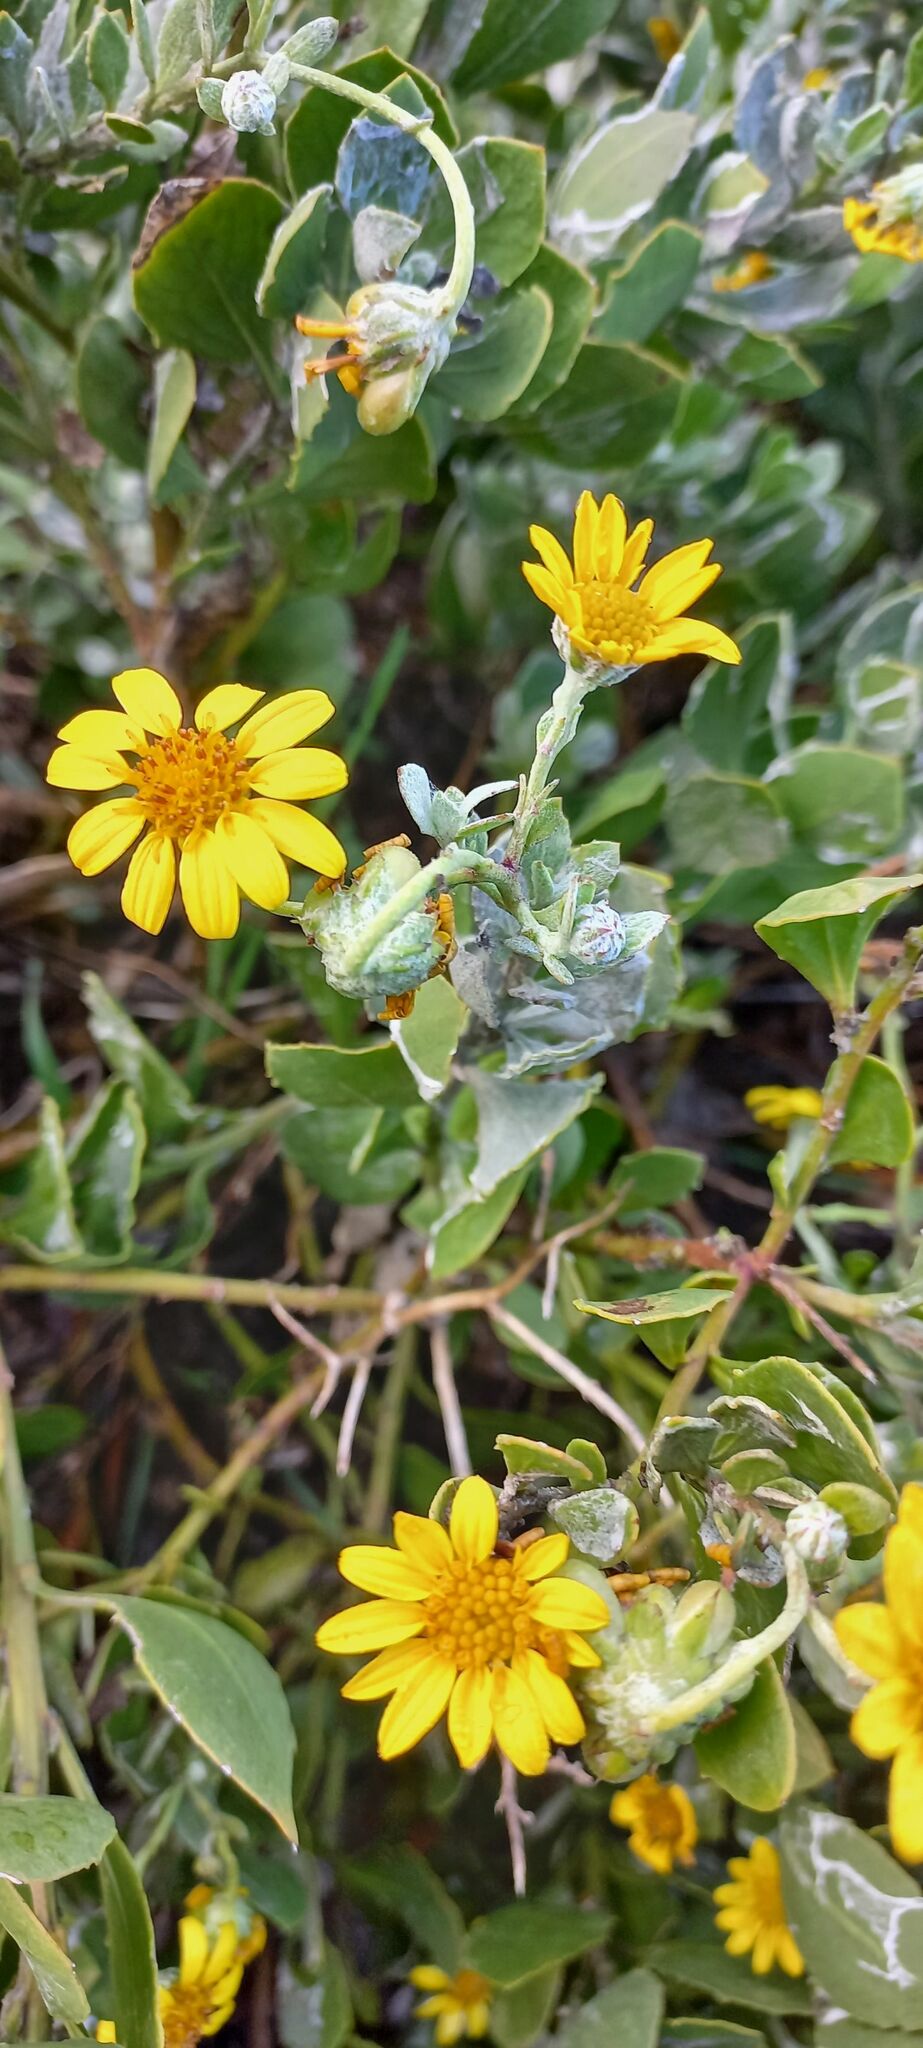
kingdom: Plantae
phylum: Tracheophyta
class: Magnoliopsida
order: Asterales
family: Asteraceae
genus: Osteospermum
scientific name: Osteospermum moniliferum
